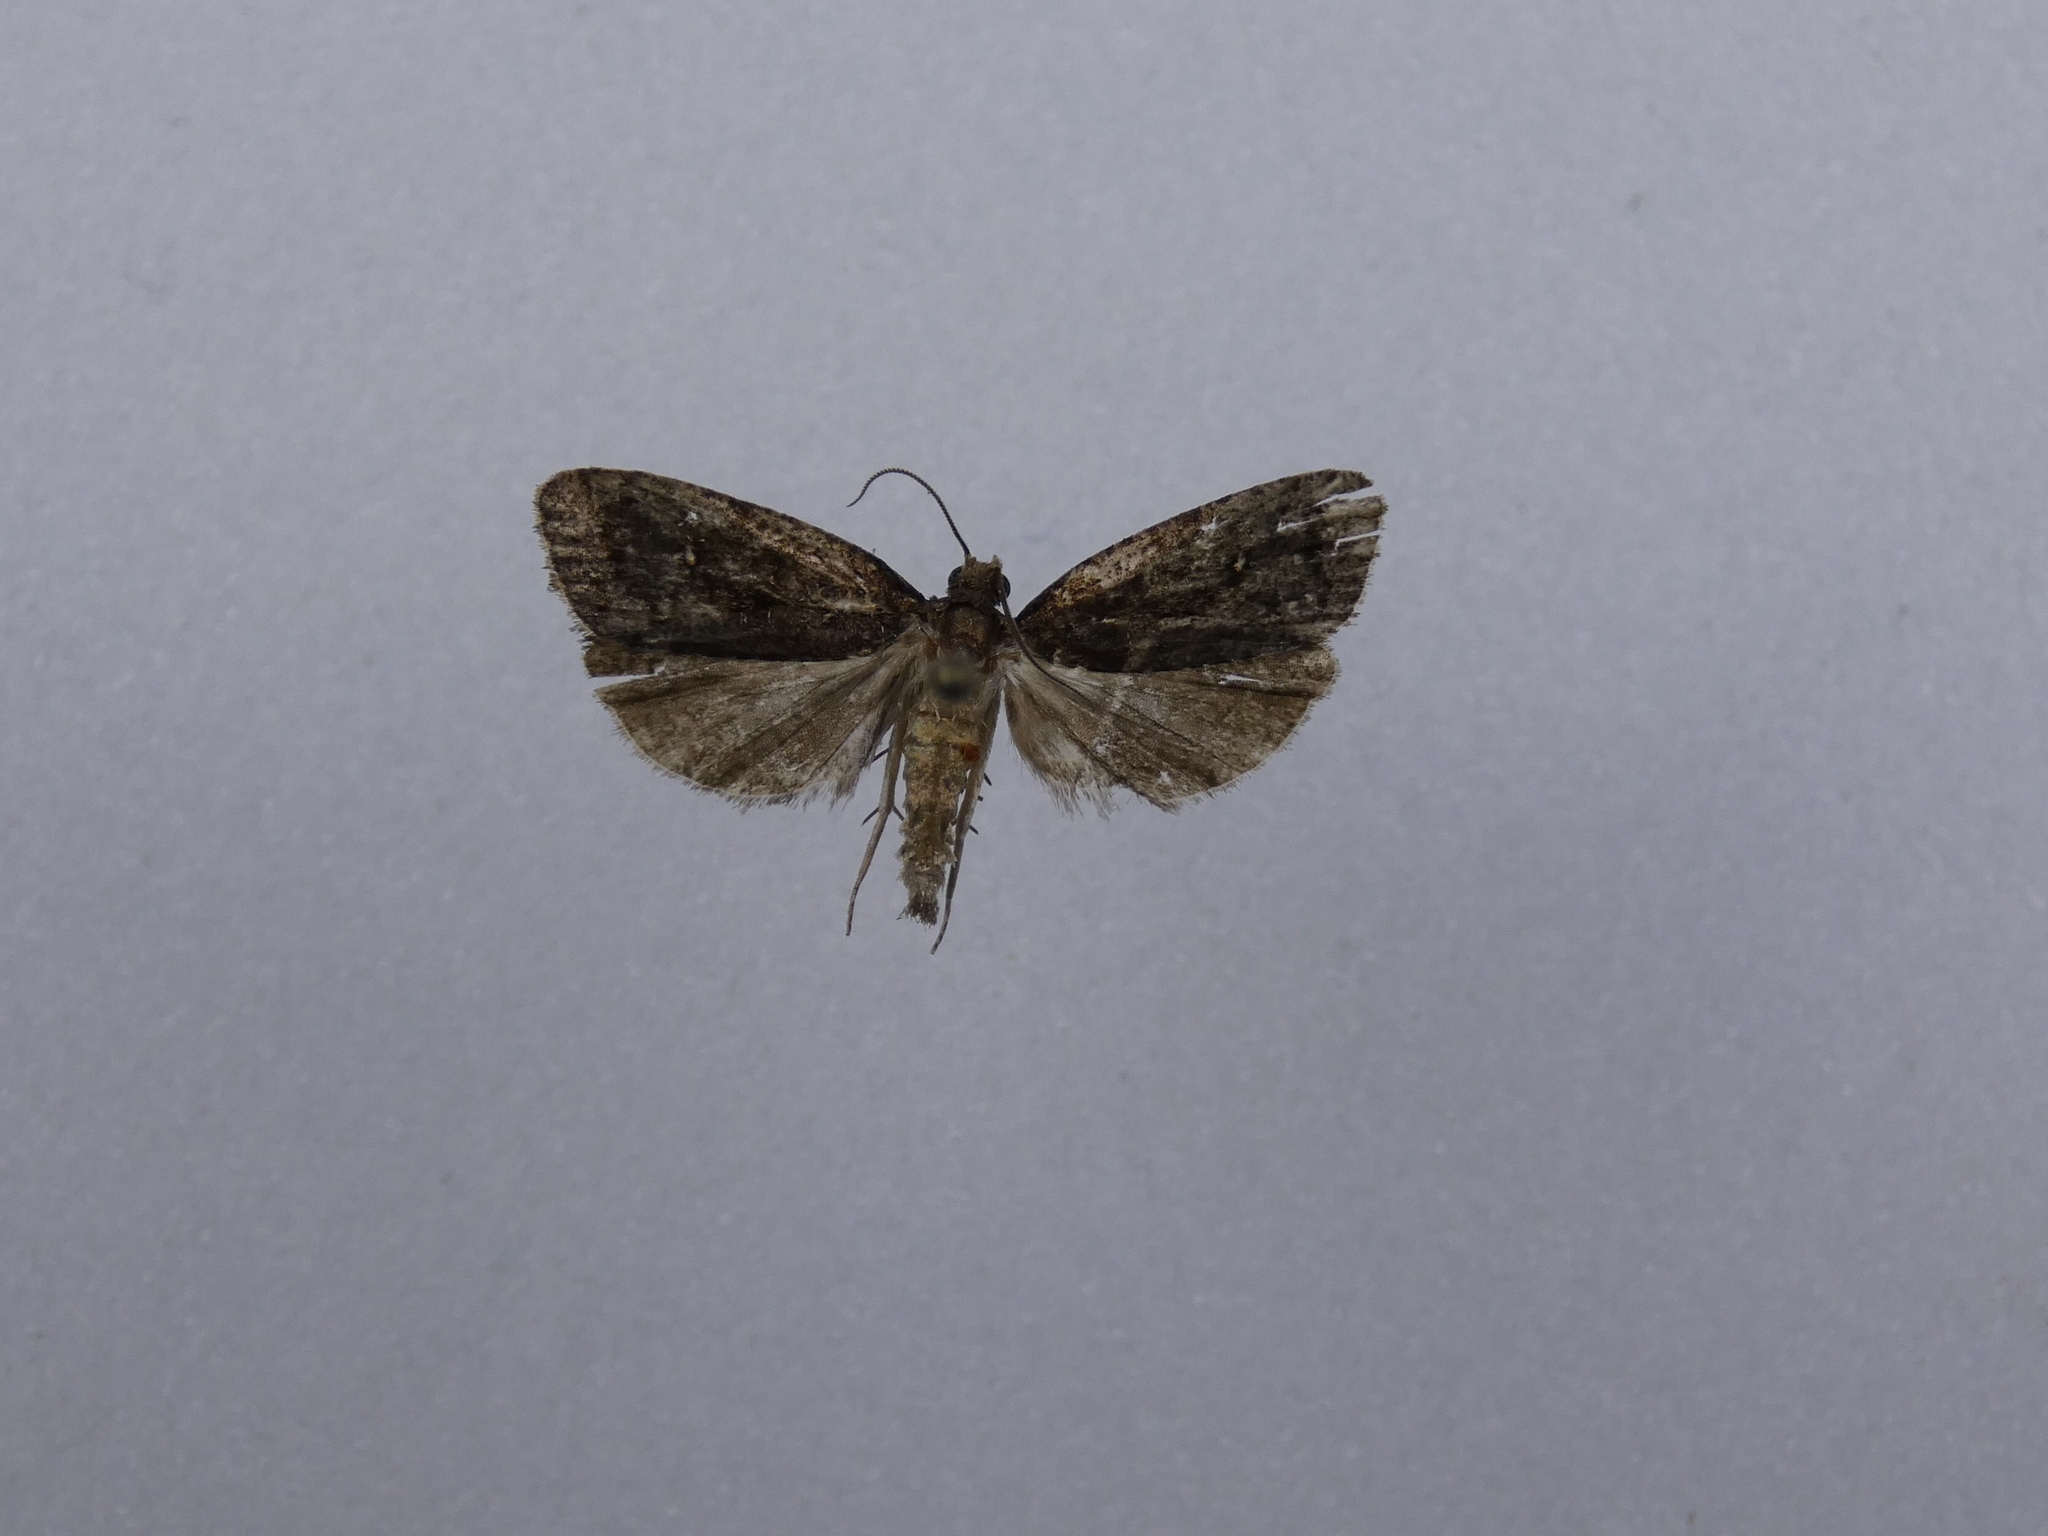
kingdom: Animalia
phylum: Arthropoda
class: Insecta
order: Lepidoptera
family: Tortricidae
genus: Cryptaspasma
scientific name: Cryptaspasma querula
